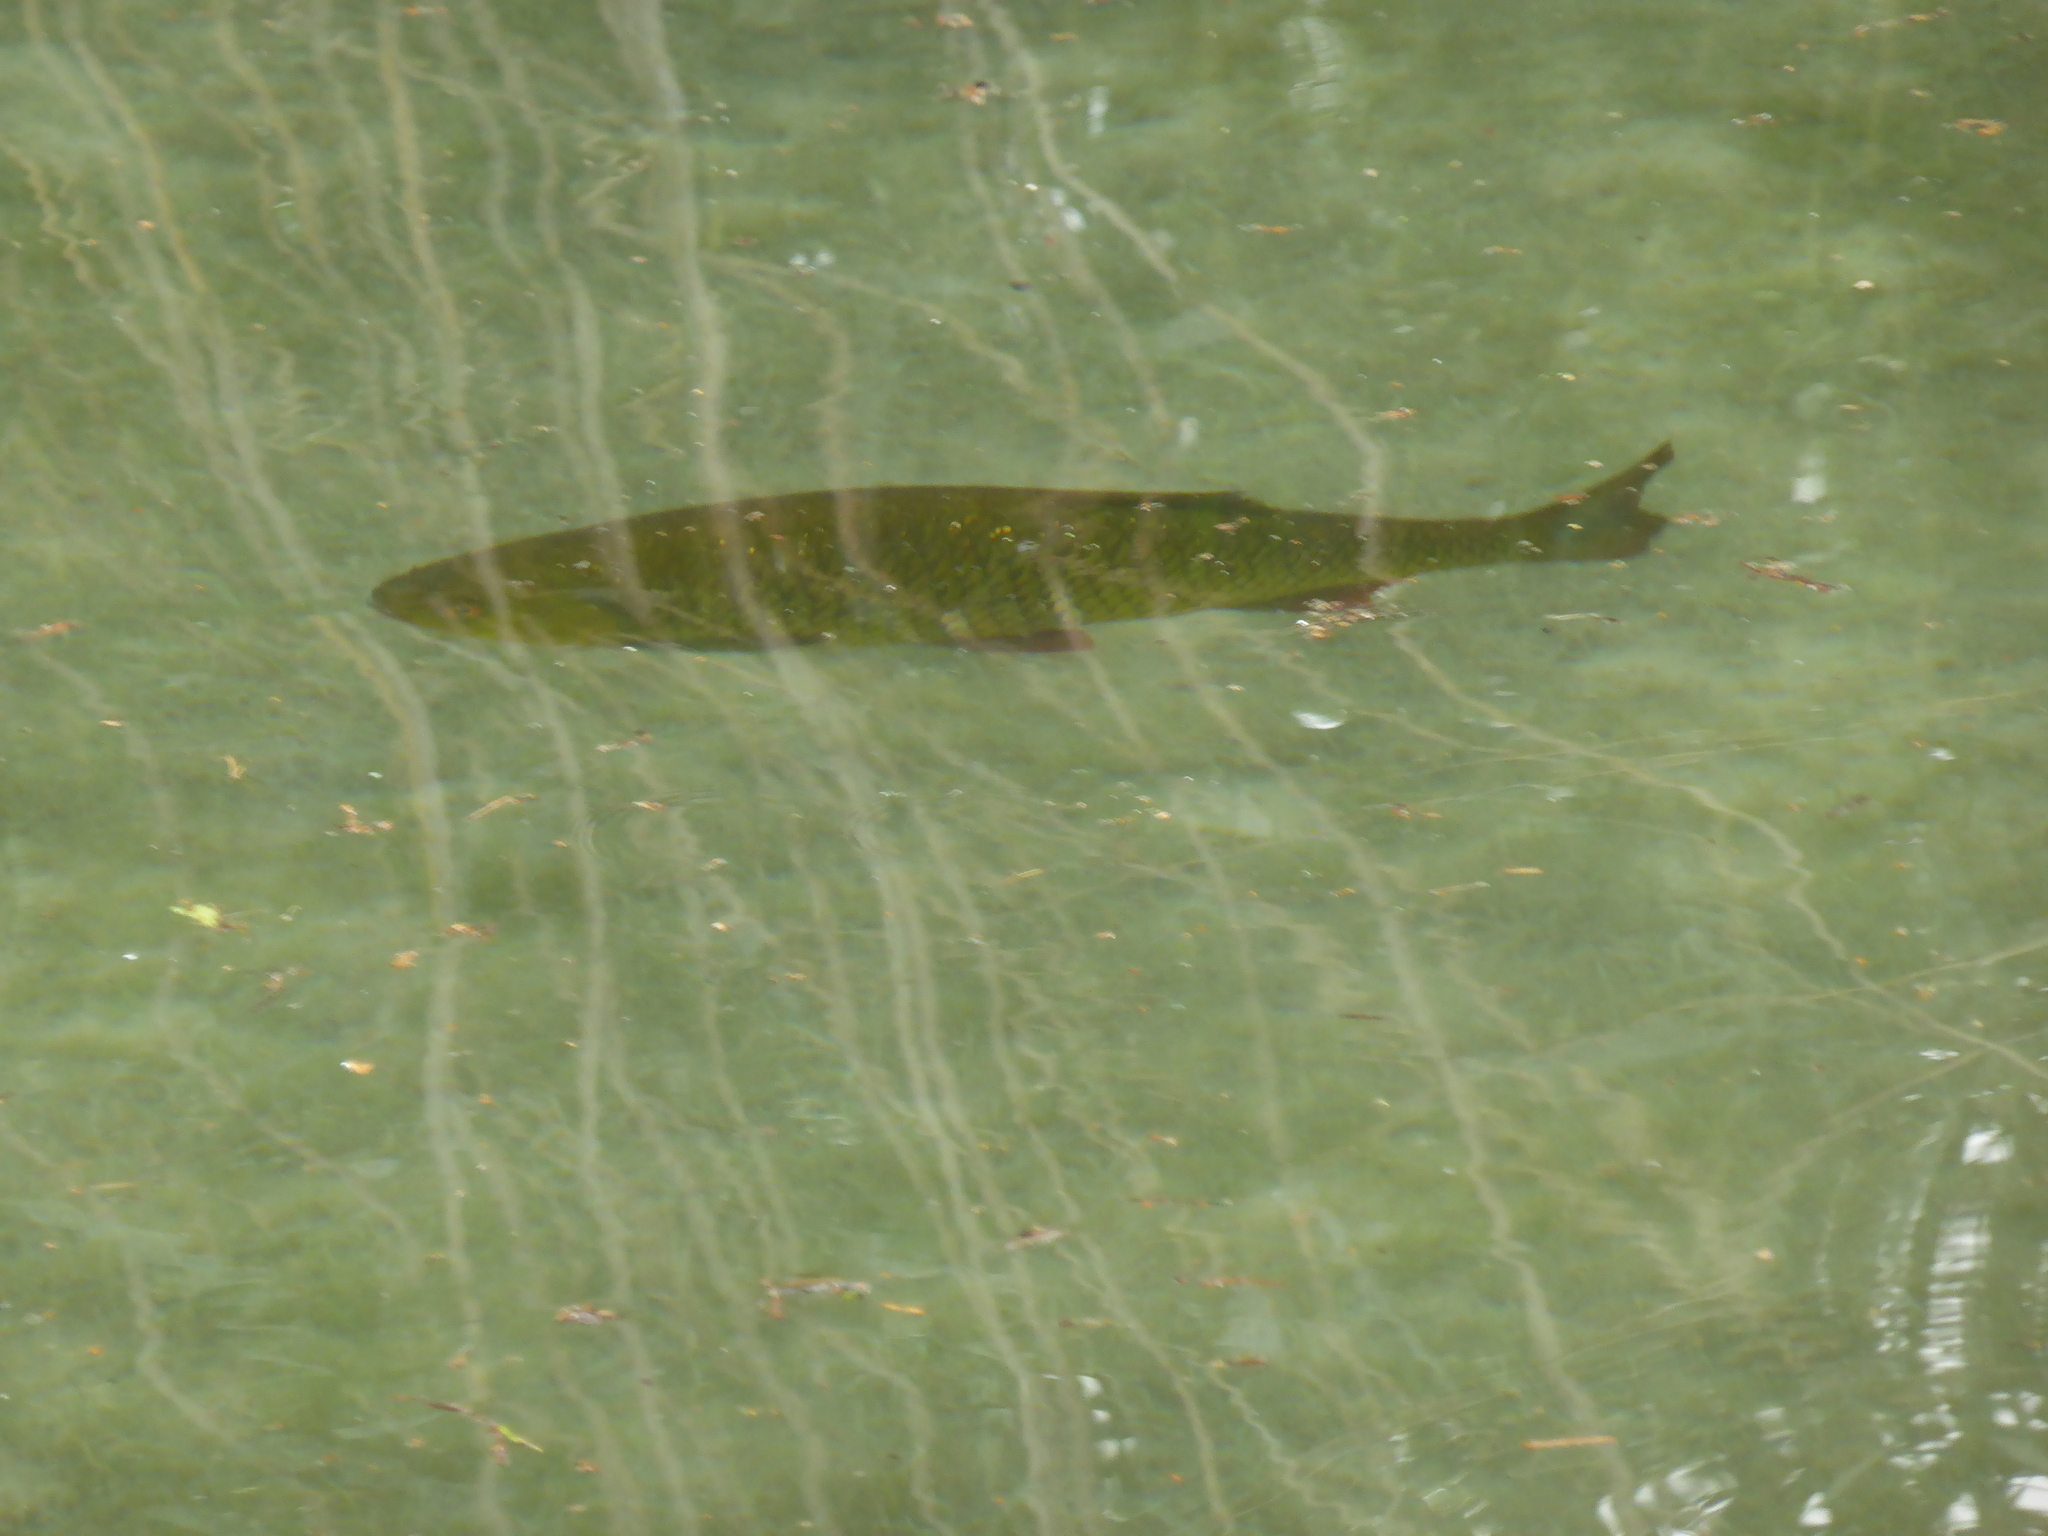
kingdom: Animalia
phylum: Chordata
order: Cypriniformes
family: Cyprinidae
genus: Scardinius
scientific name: Scardinius erythrophthalmus
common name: Rudd
